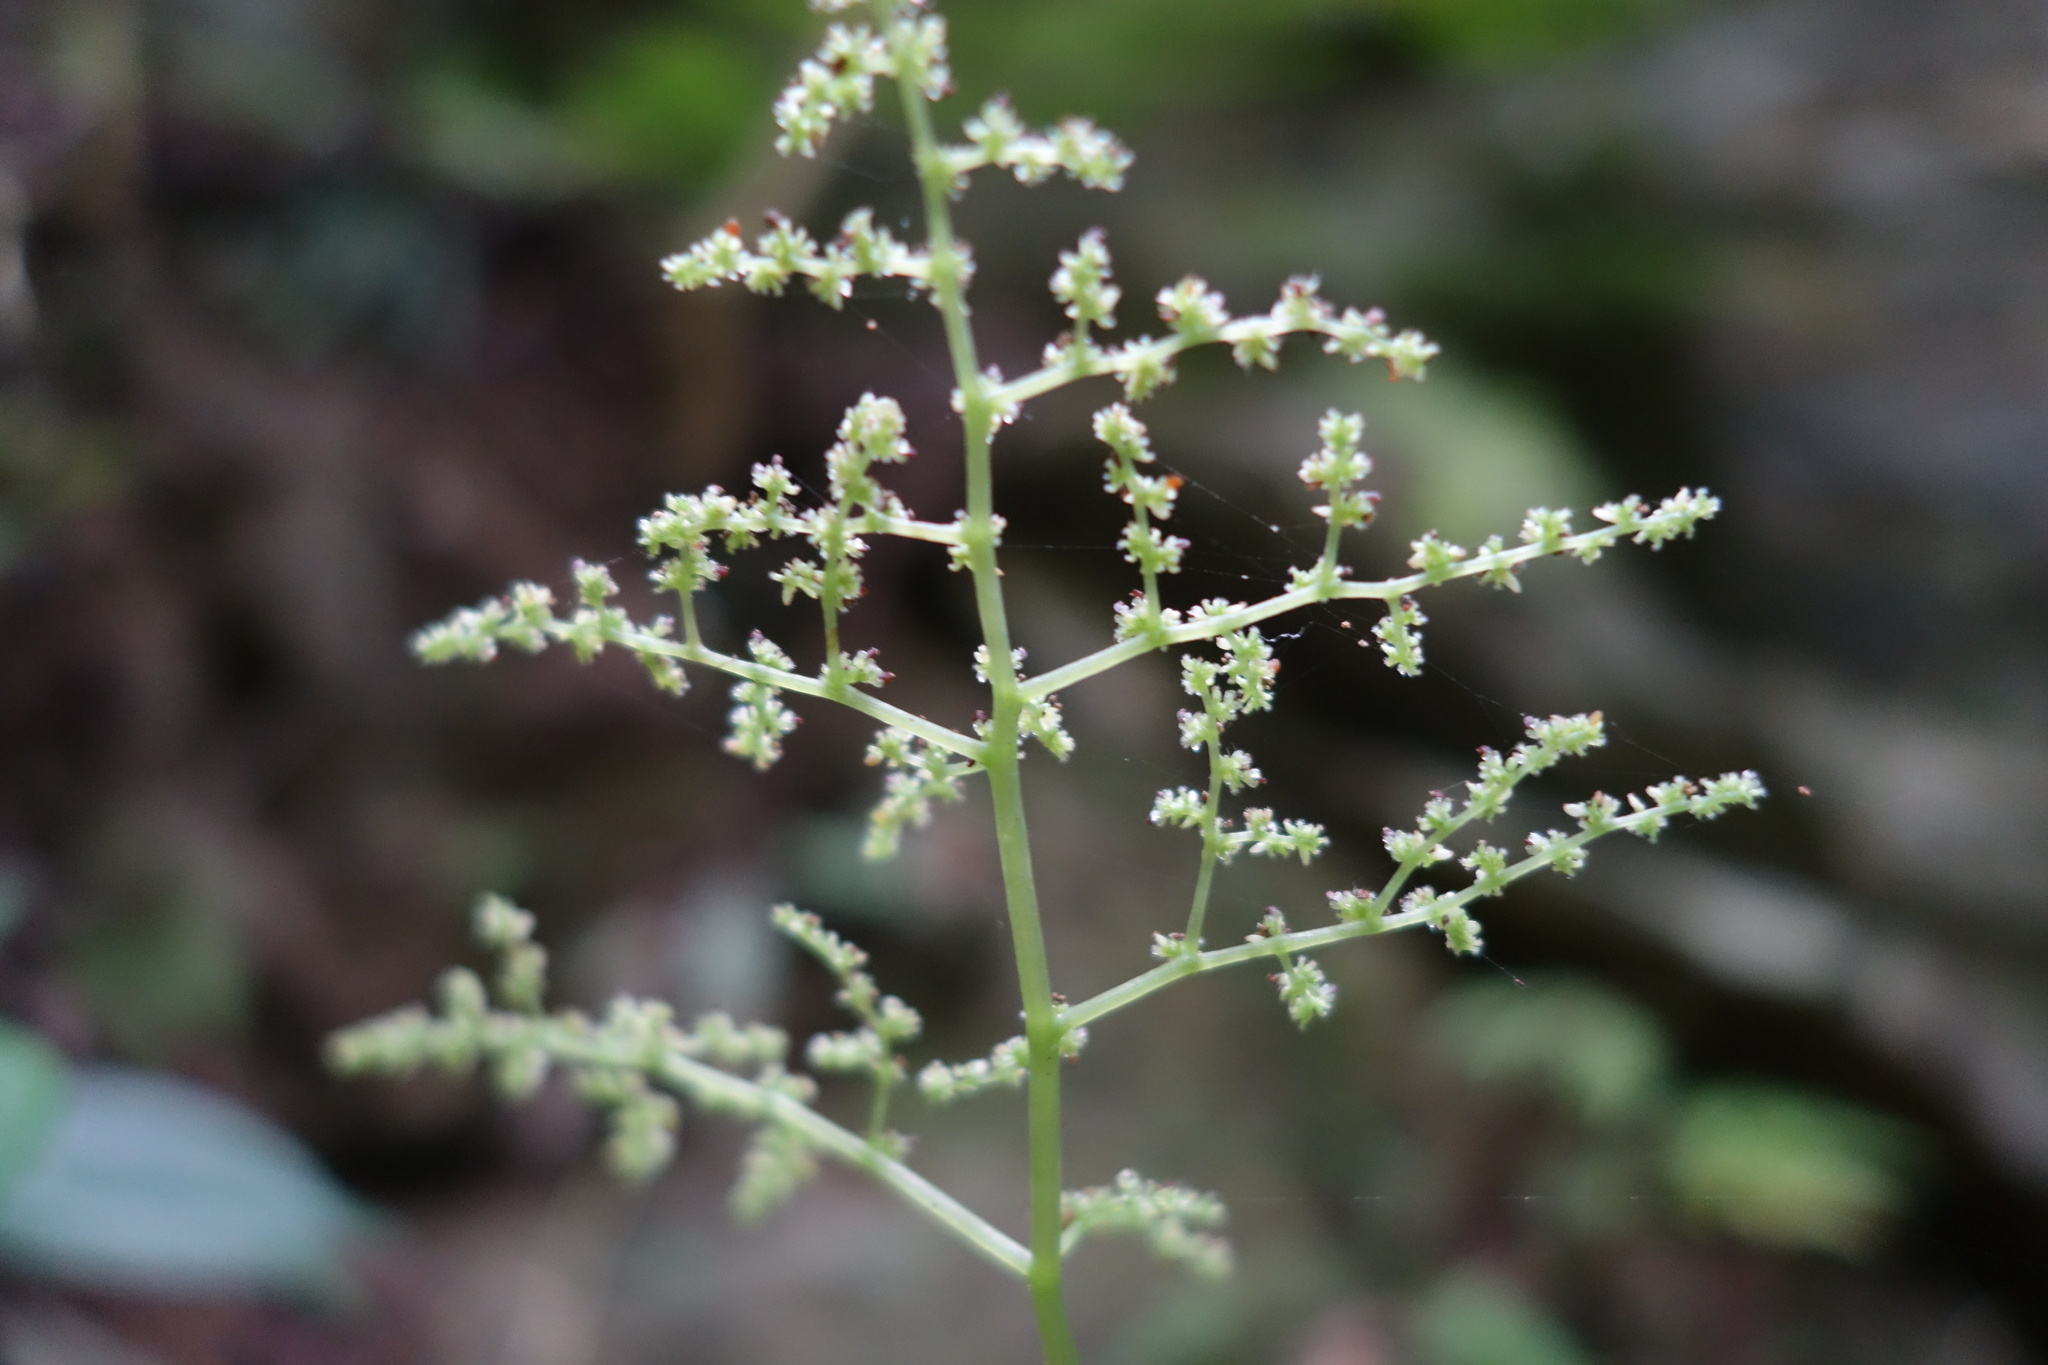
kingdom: Plantae
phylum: Tracheophyta
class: Magnoliopsida
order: Rosales
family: Urticaceae
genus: Pilea
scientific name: Pilea plataniflora
